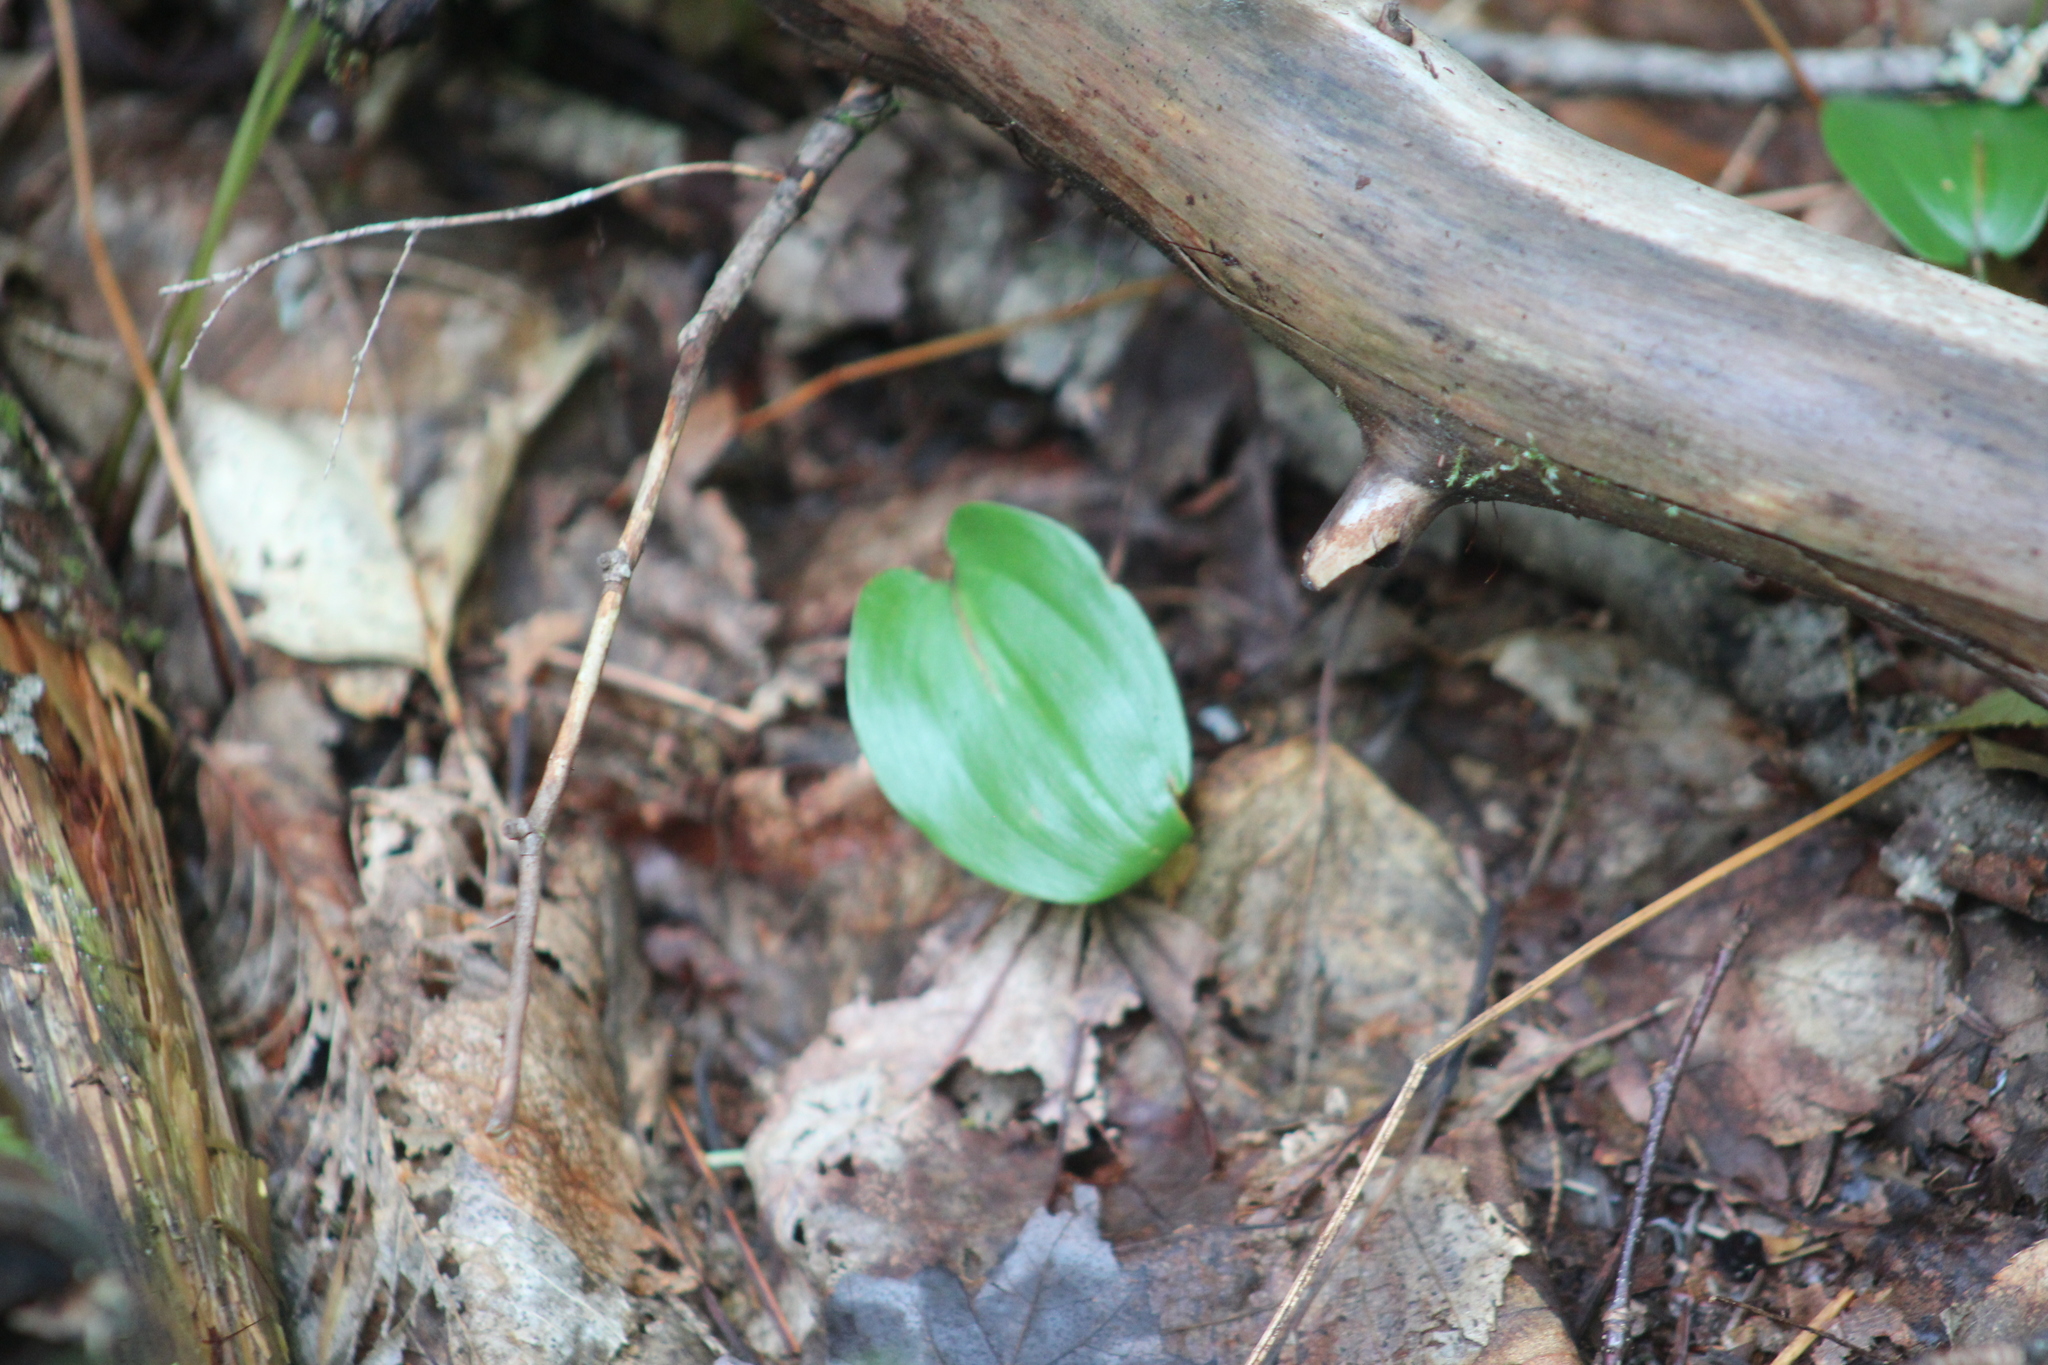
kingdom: Plantae
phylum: Tracheophyta
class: Liliopsida
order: Asparagales
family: Asparagaceae
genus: Maianthemum
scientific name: Maianthemum canadense
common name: False lily-of-the-valley
